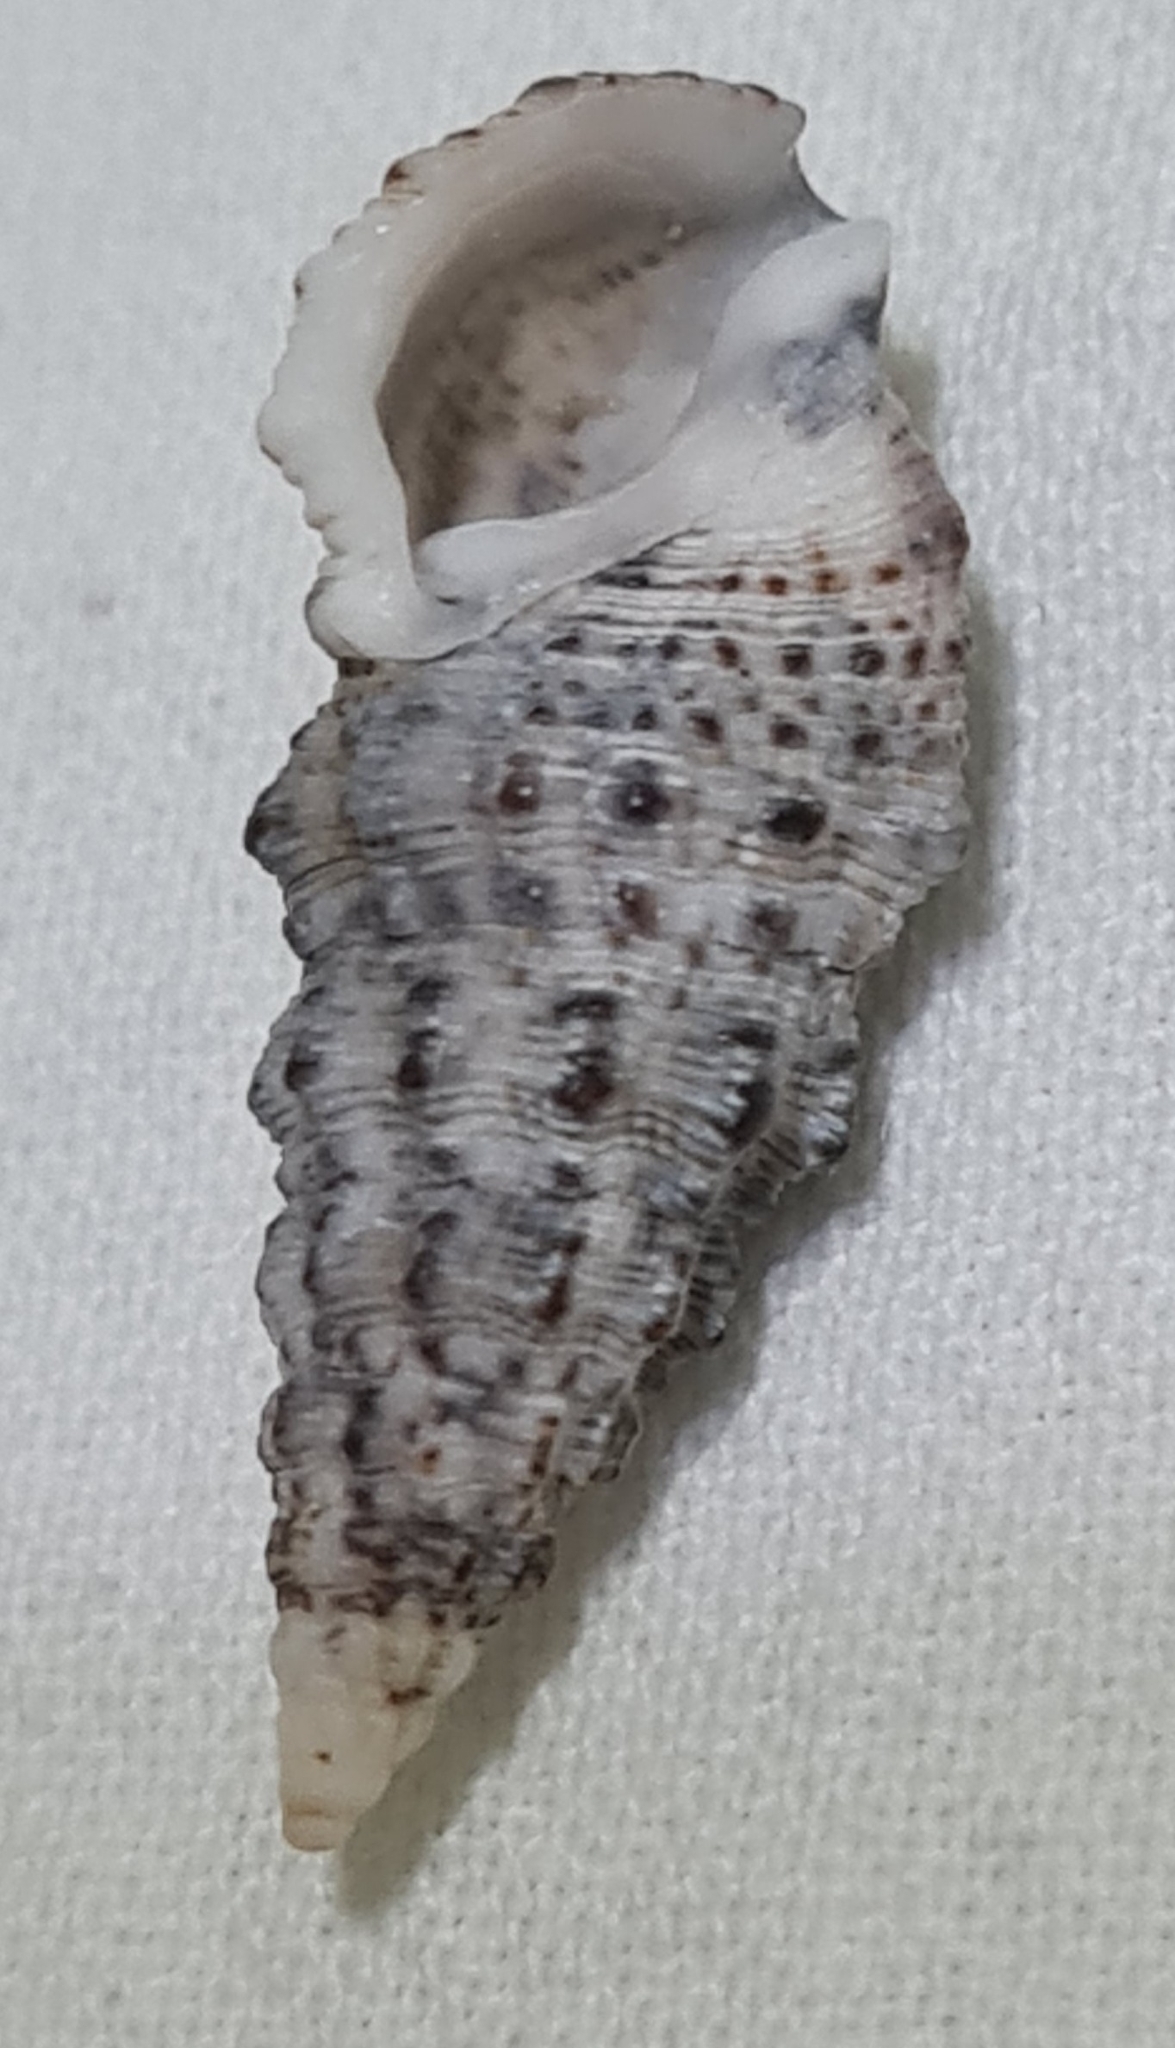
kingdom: Animalia
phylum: Mollusca
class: Gastropoda
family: Cerithiidae
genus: Cerithium
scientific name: Cerithium atratum
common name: Dark cerith
